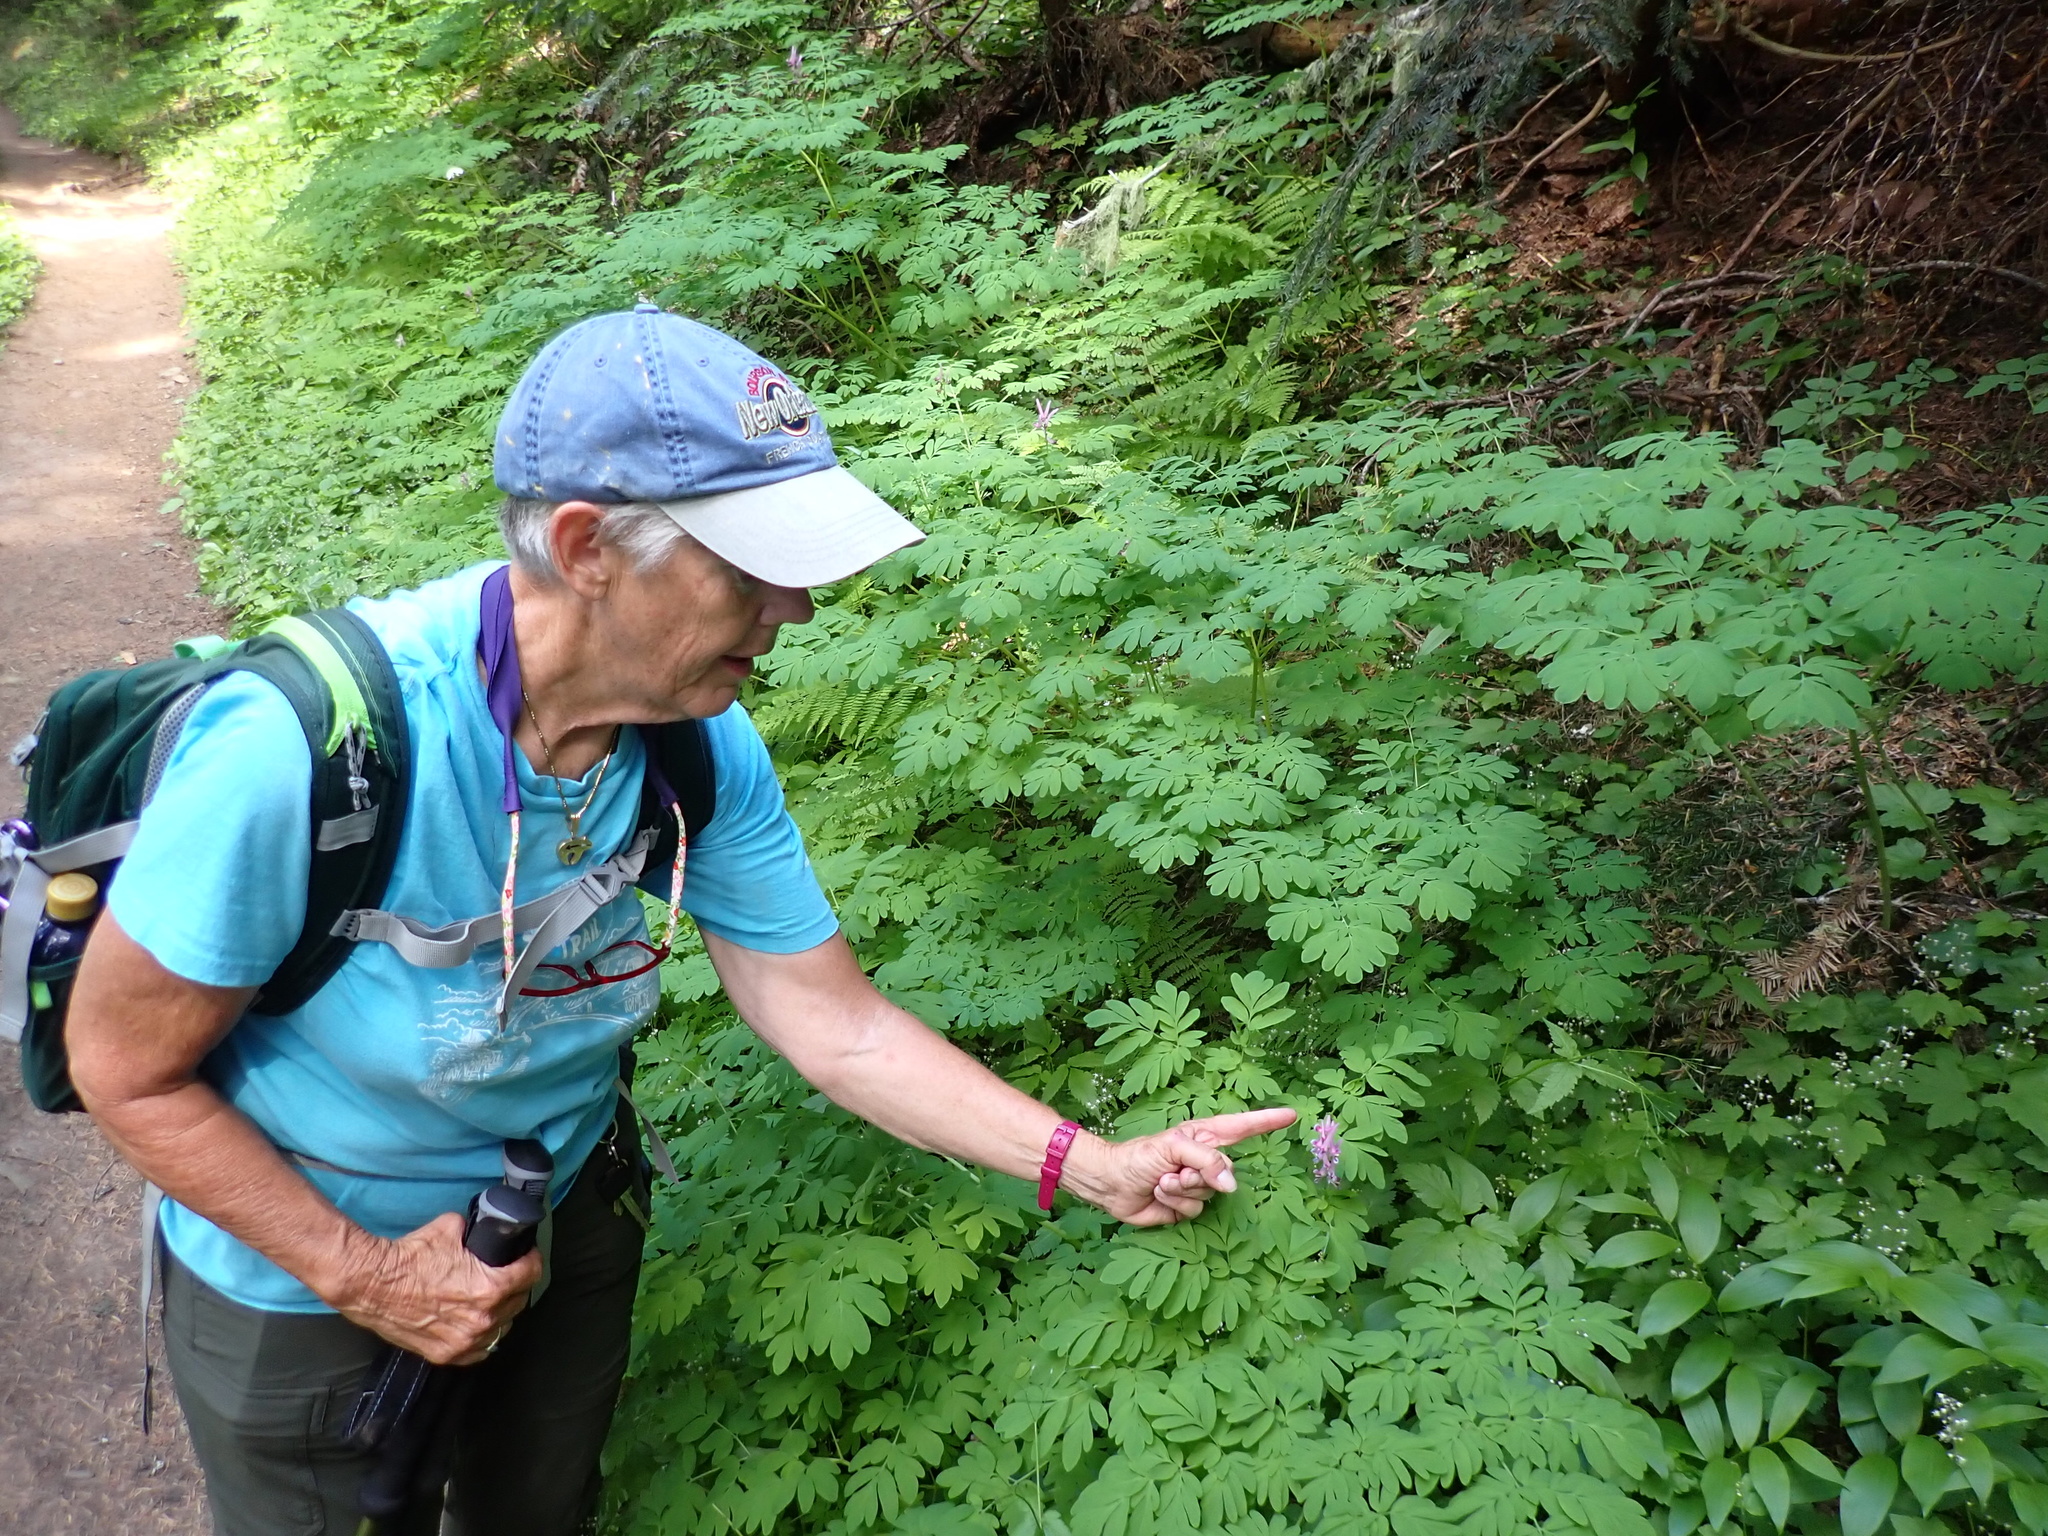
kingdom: Plantae
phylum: Tracheophyta
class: Magnoliopsida
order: Ranunculales
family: Papaveraceae
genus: Corydalis
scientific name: Corydalis scouleri
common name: Scouler's corydalis
